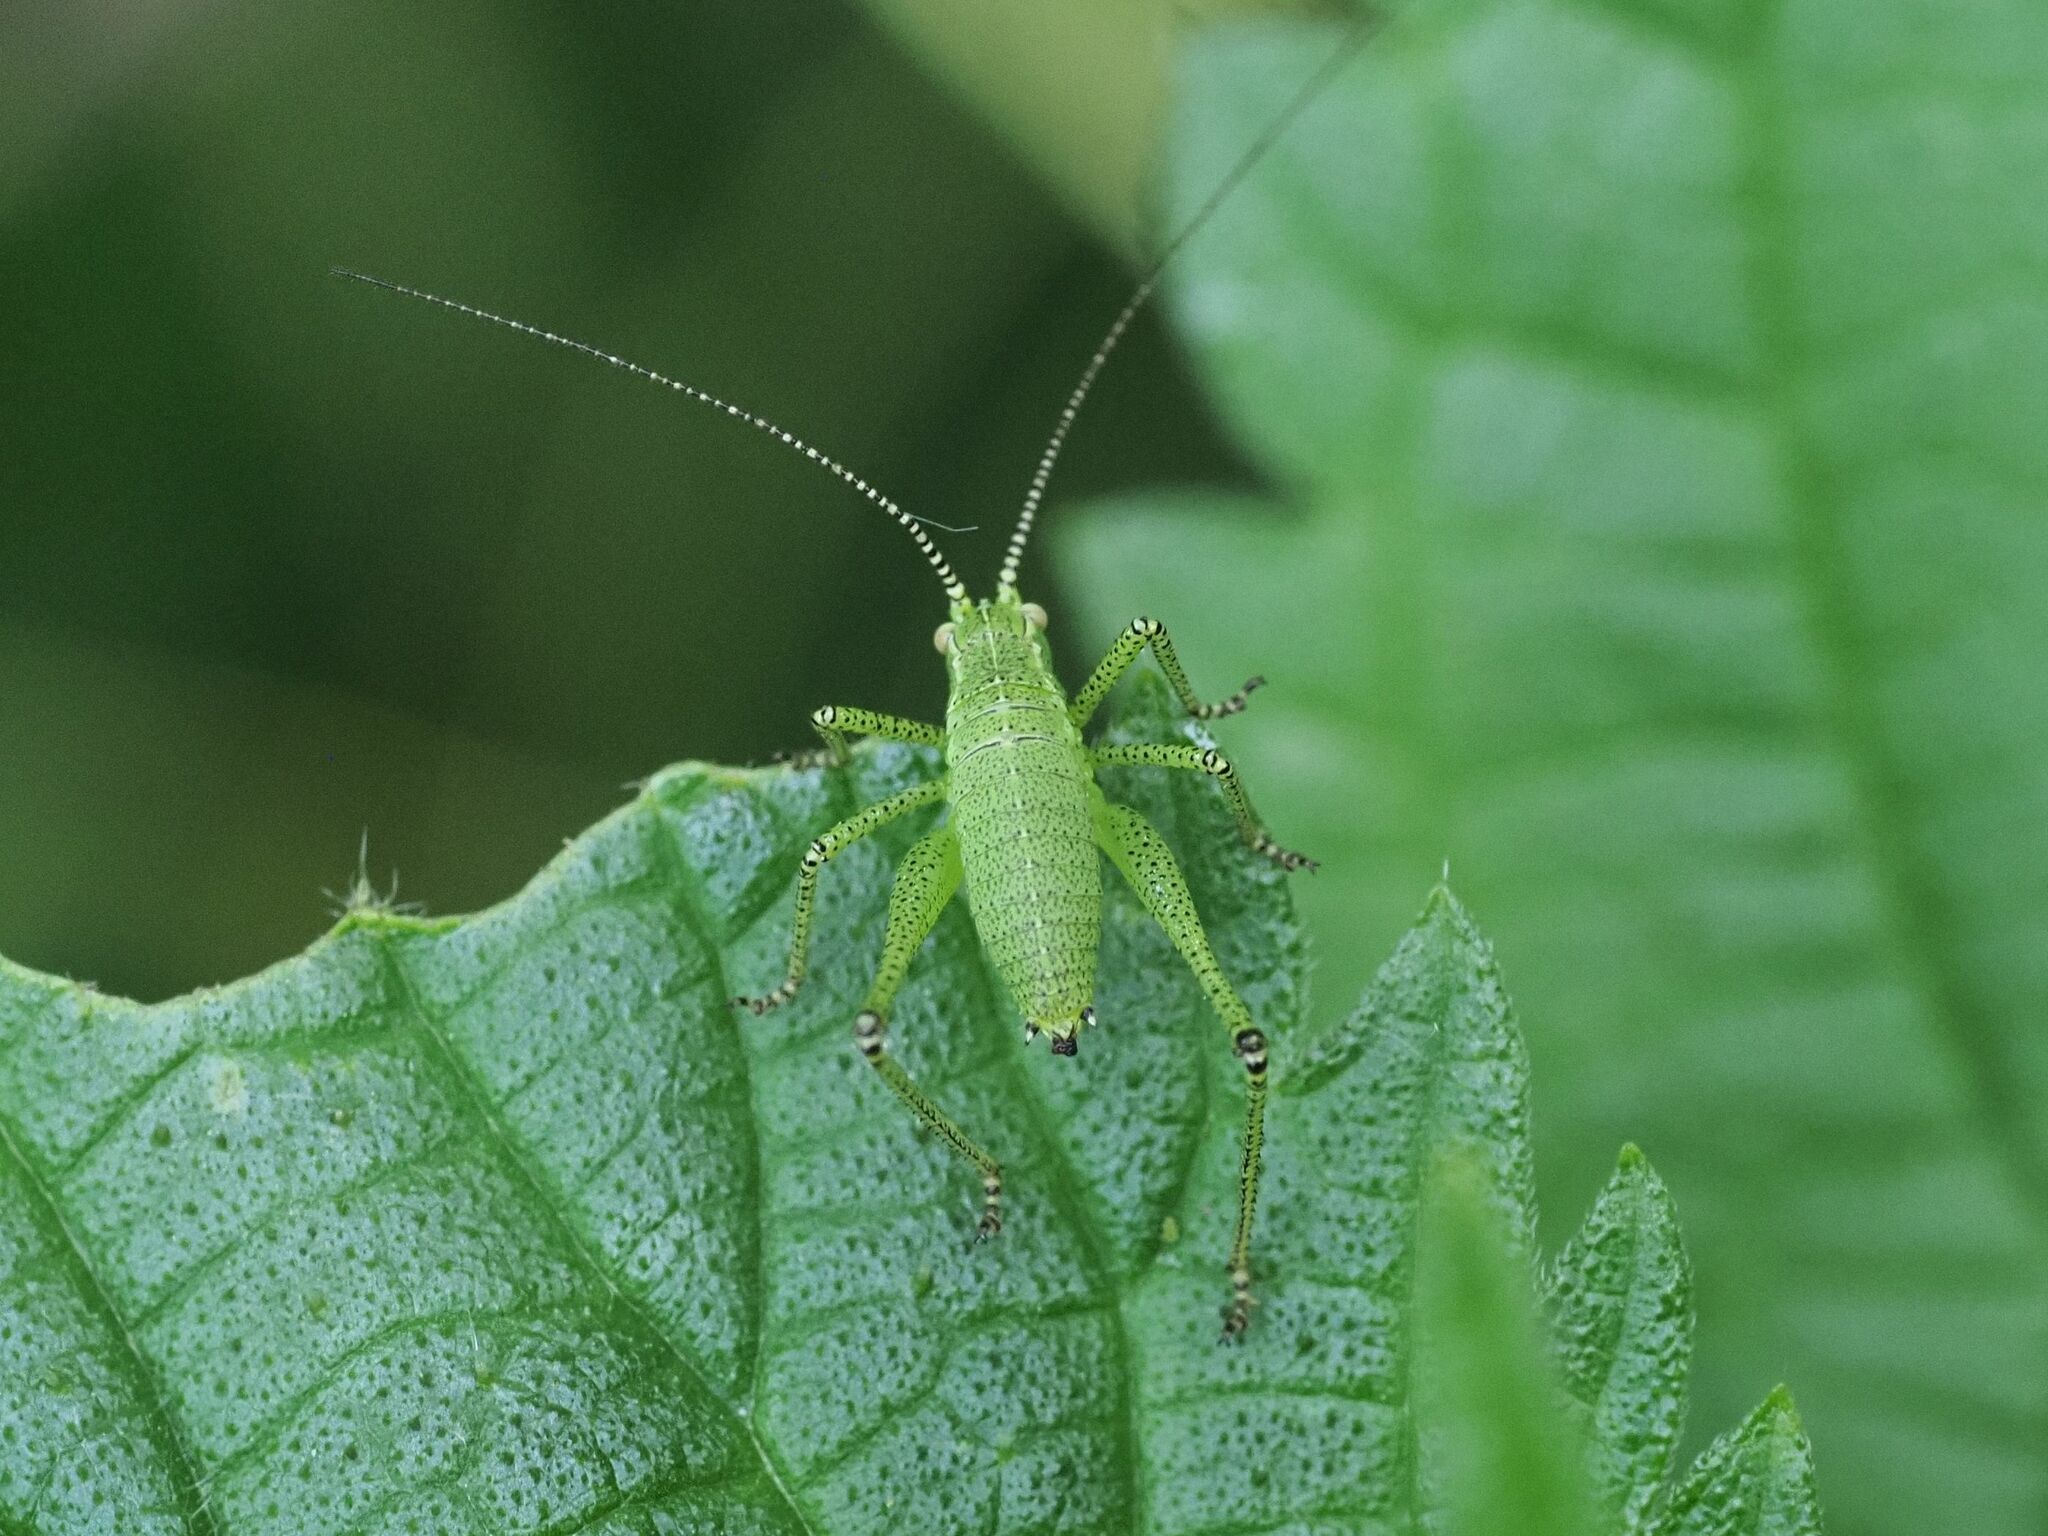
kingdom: Animalia
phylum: Arthropoda
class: Insecta
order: Orthoptera
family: Tettigoniidae
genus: Leptophyes
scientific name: Leptophyes punctatissima
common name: Speckled bush-cricket
